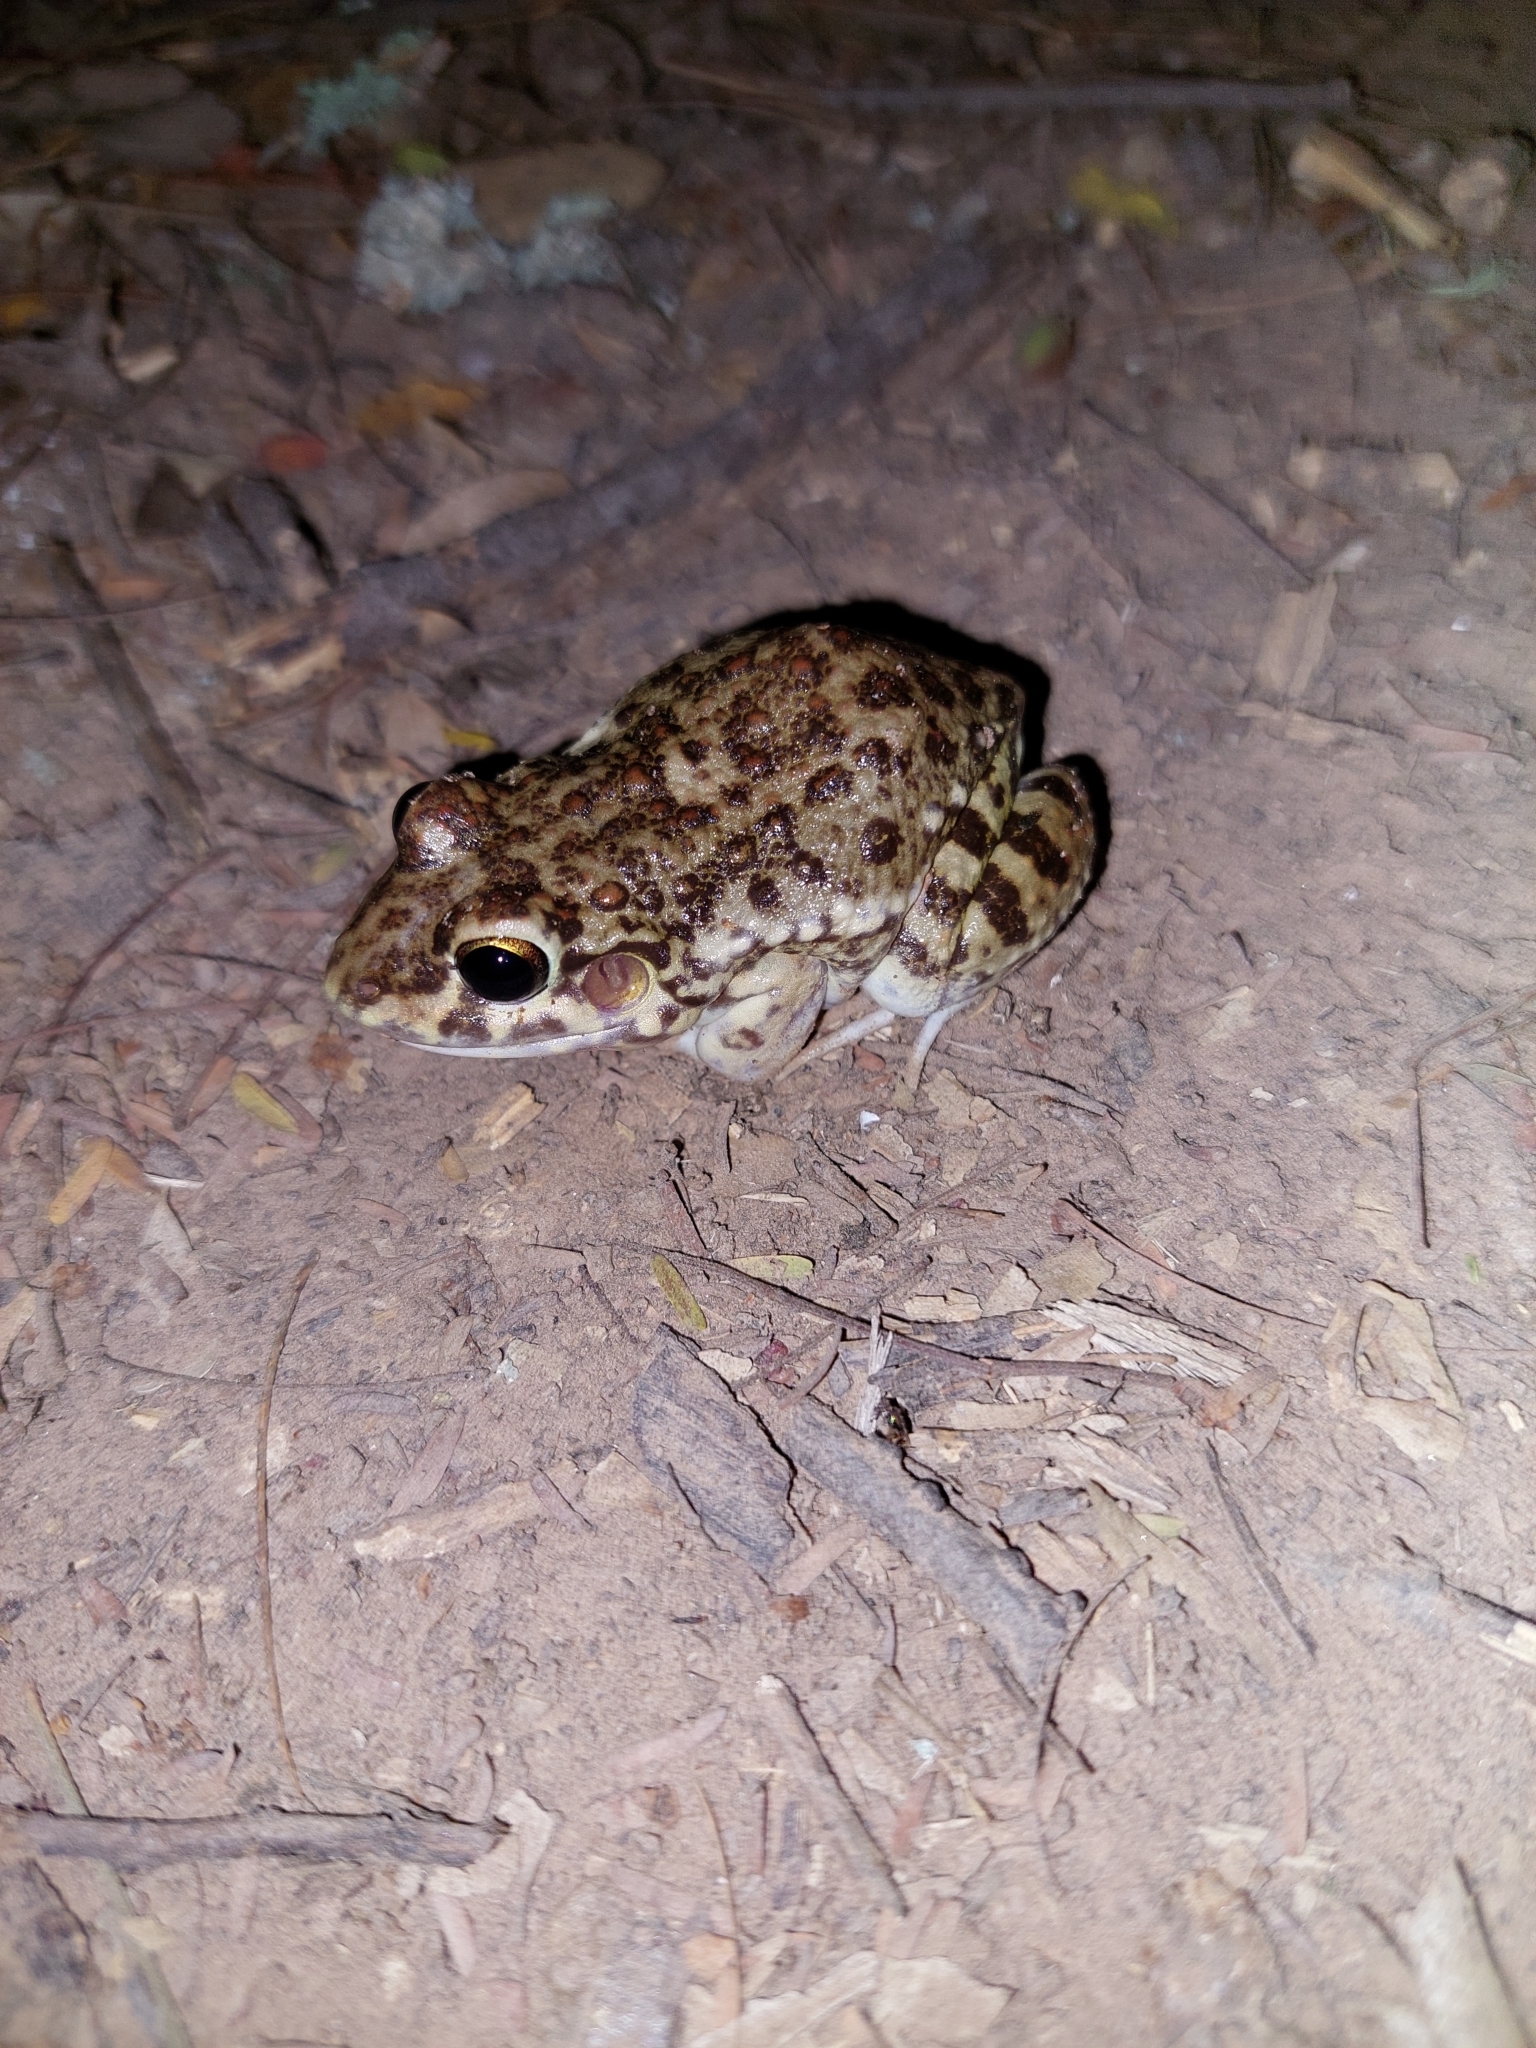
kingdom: Animalia
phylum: Chordata
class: Amphibia
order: Anura
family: Leptodactylidae
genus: Leptodactylus
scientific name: Leptodactylus bufonius
